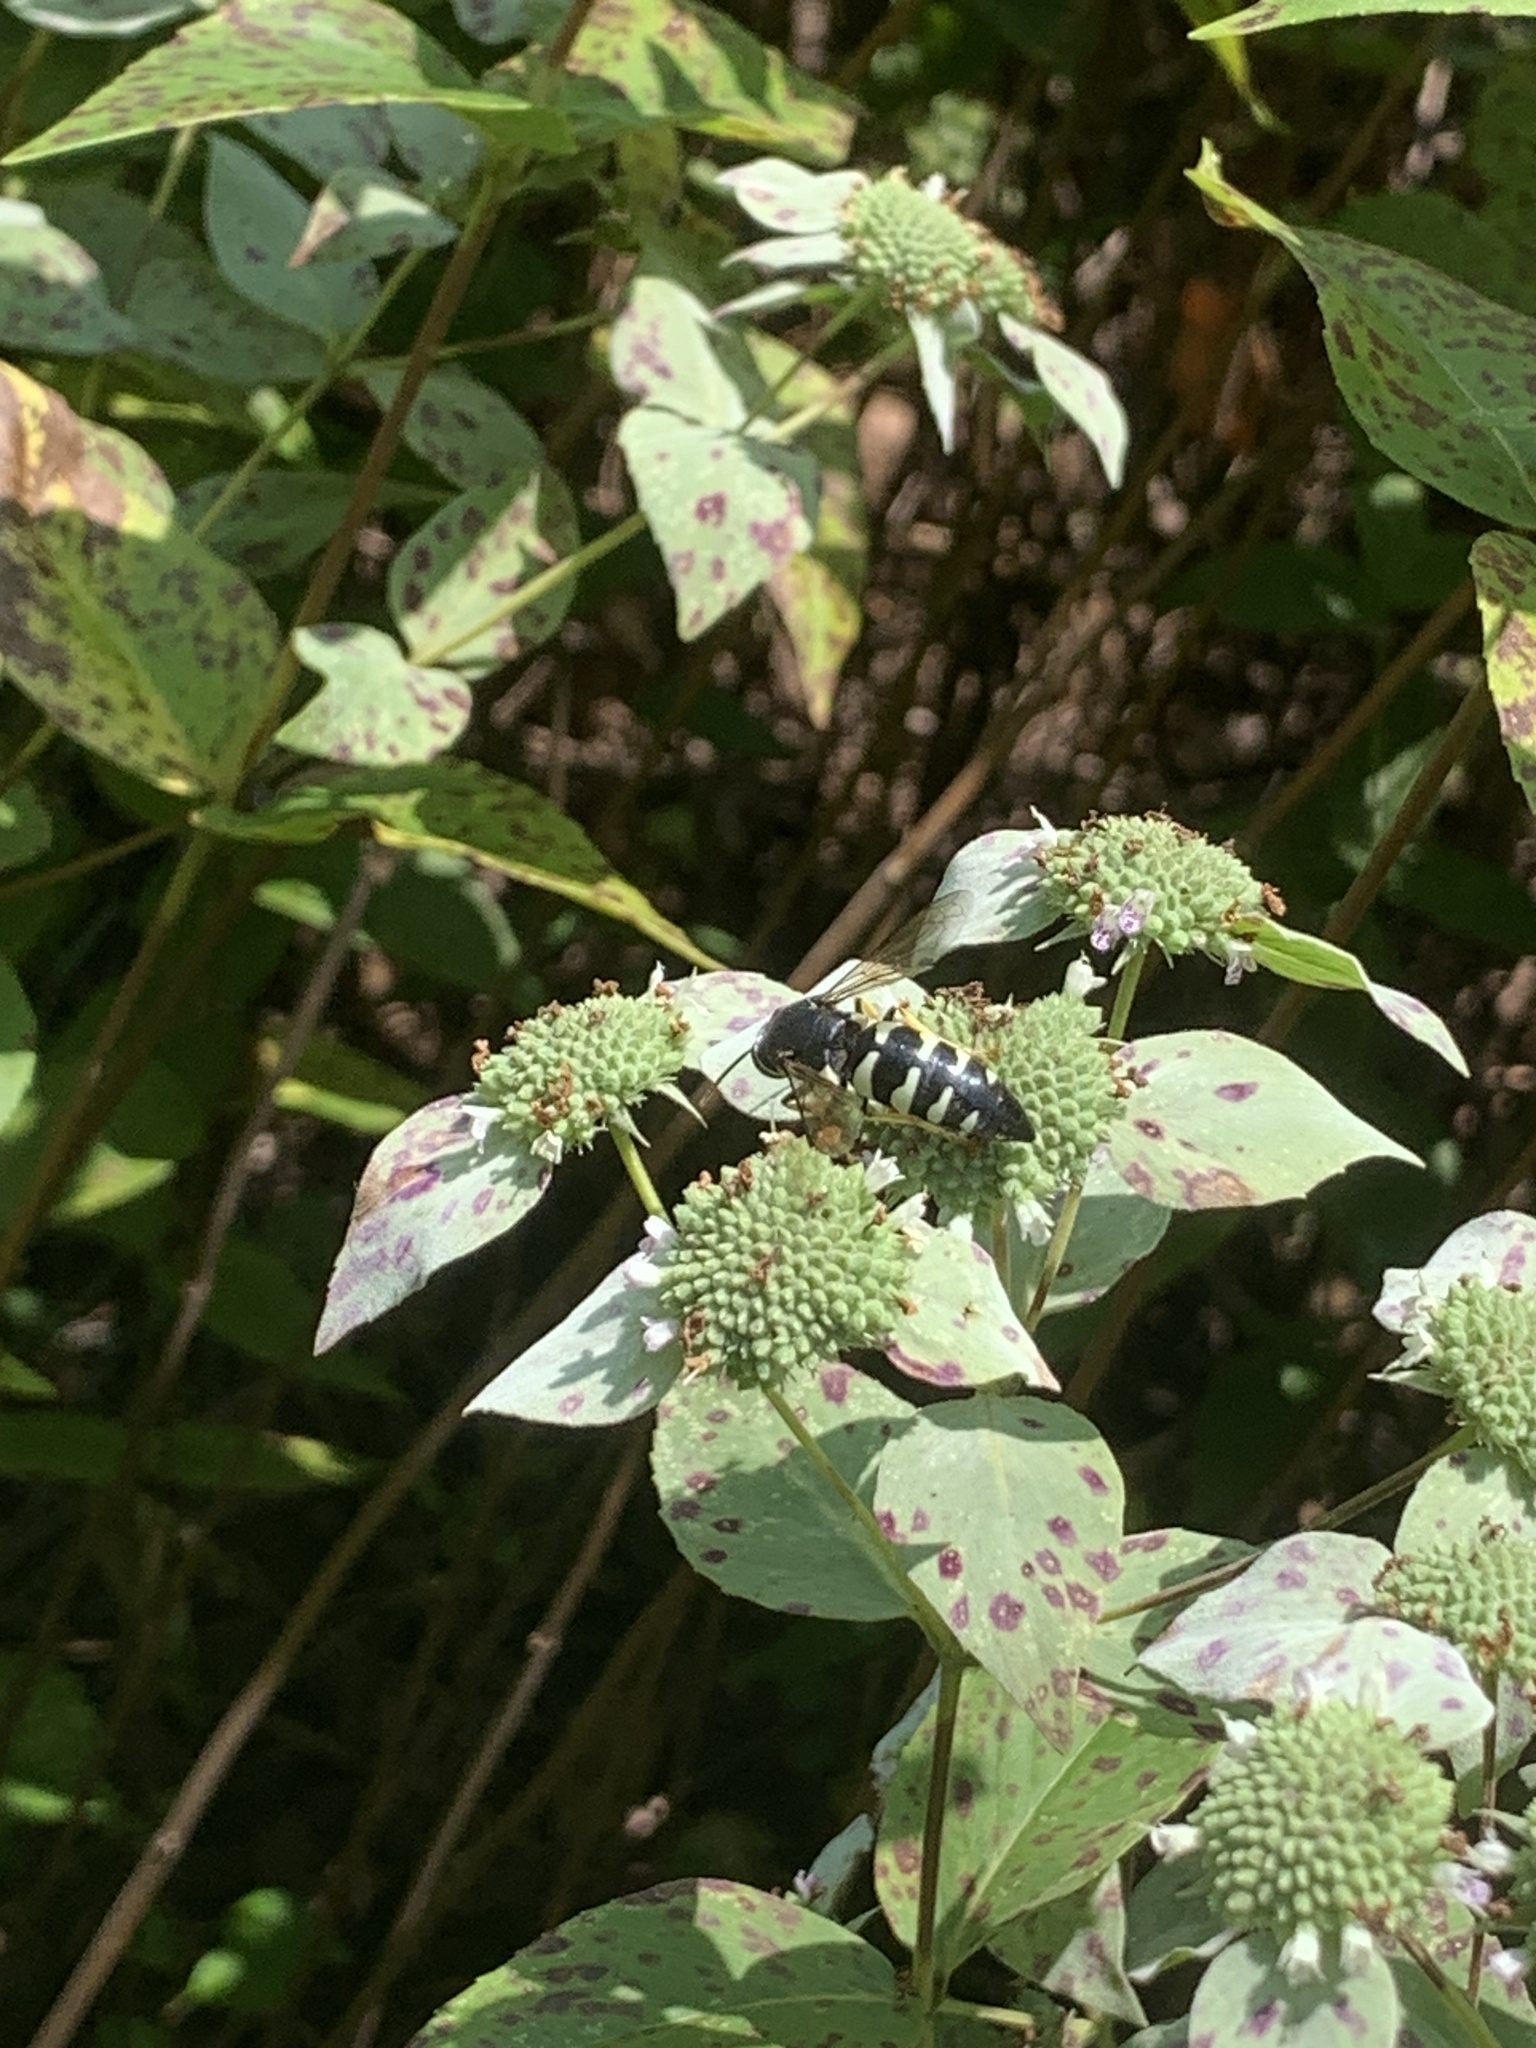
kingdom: Animalia
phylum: Arthropoda
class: Insecta
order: Hymenoptera
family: Crabronidae
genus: Bicyrtes
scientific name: Bicyrtes quadrifasciatus
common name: Four-banded stink bug hunter wasp
